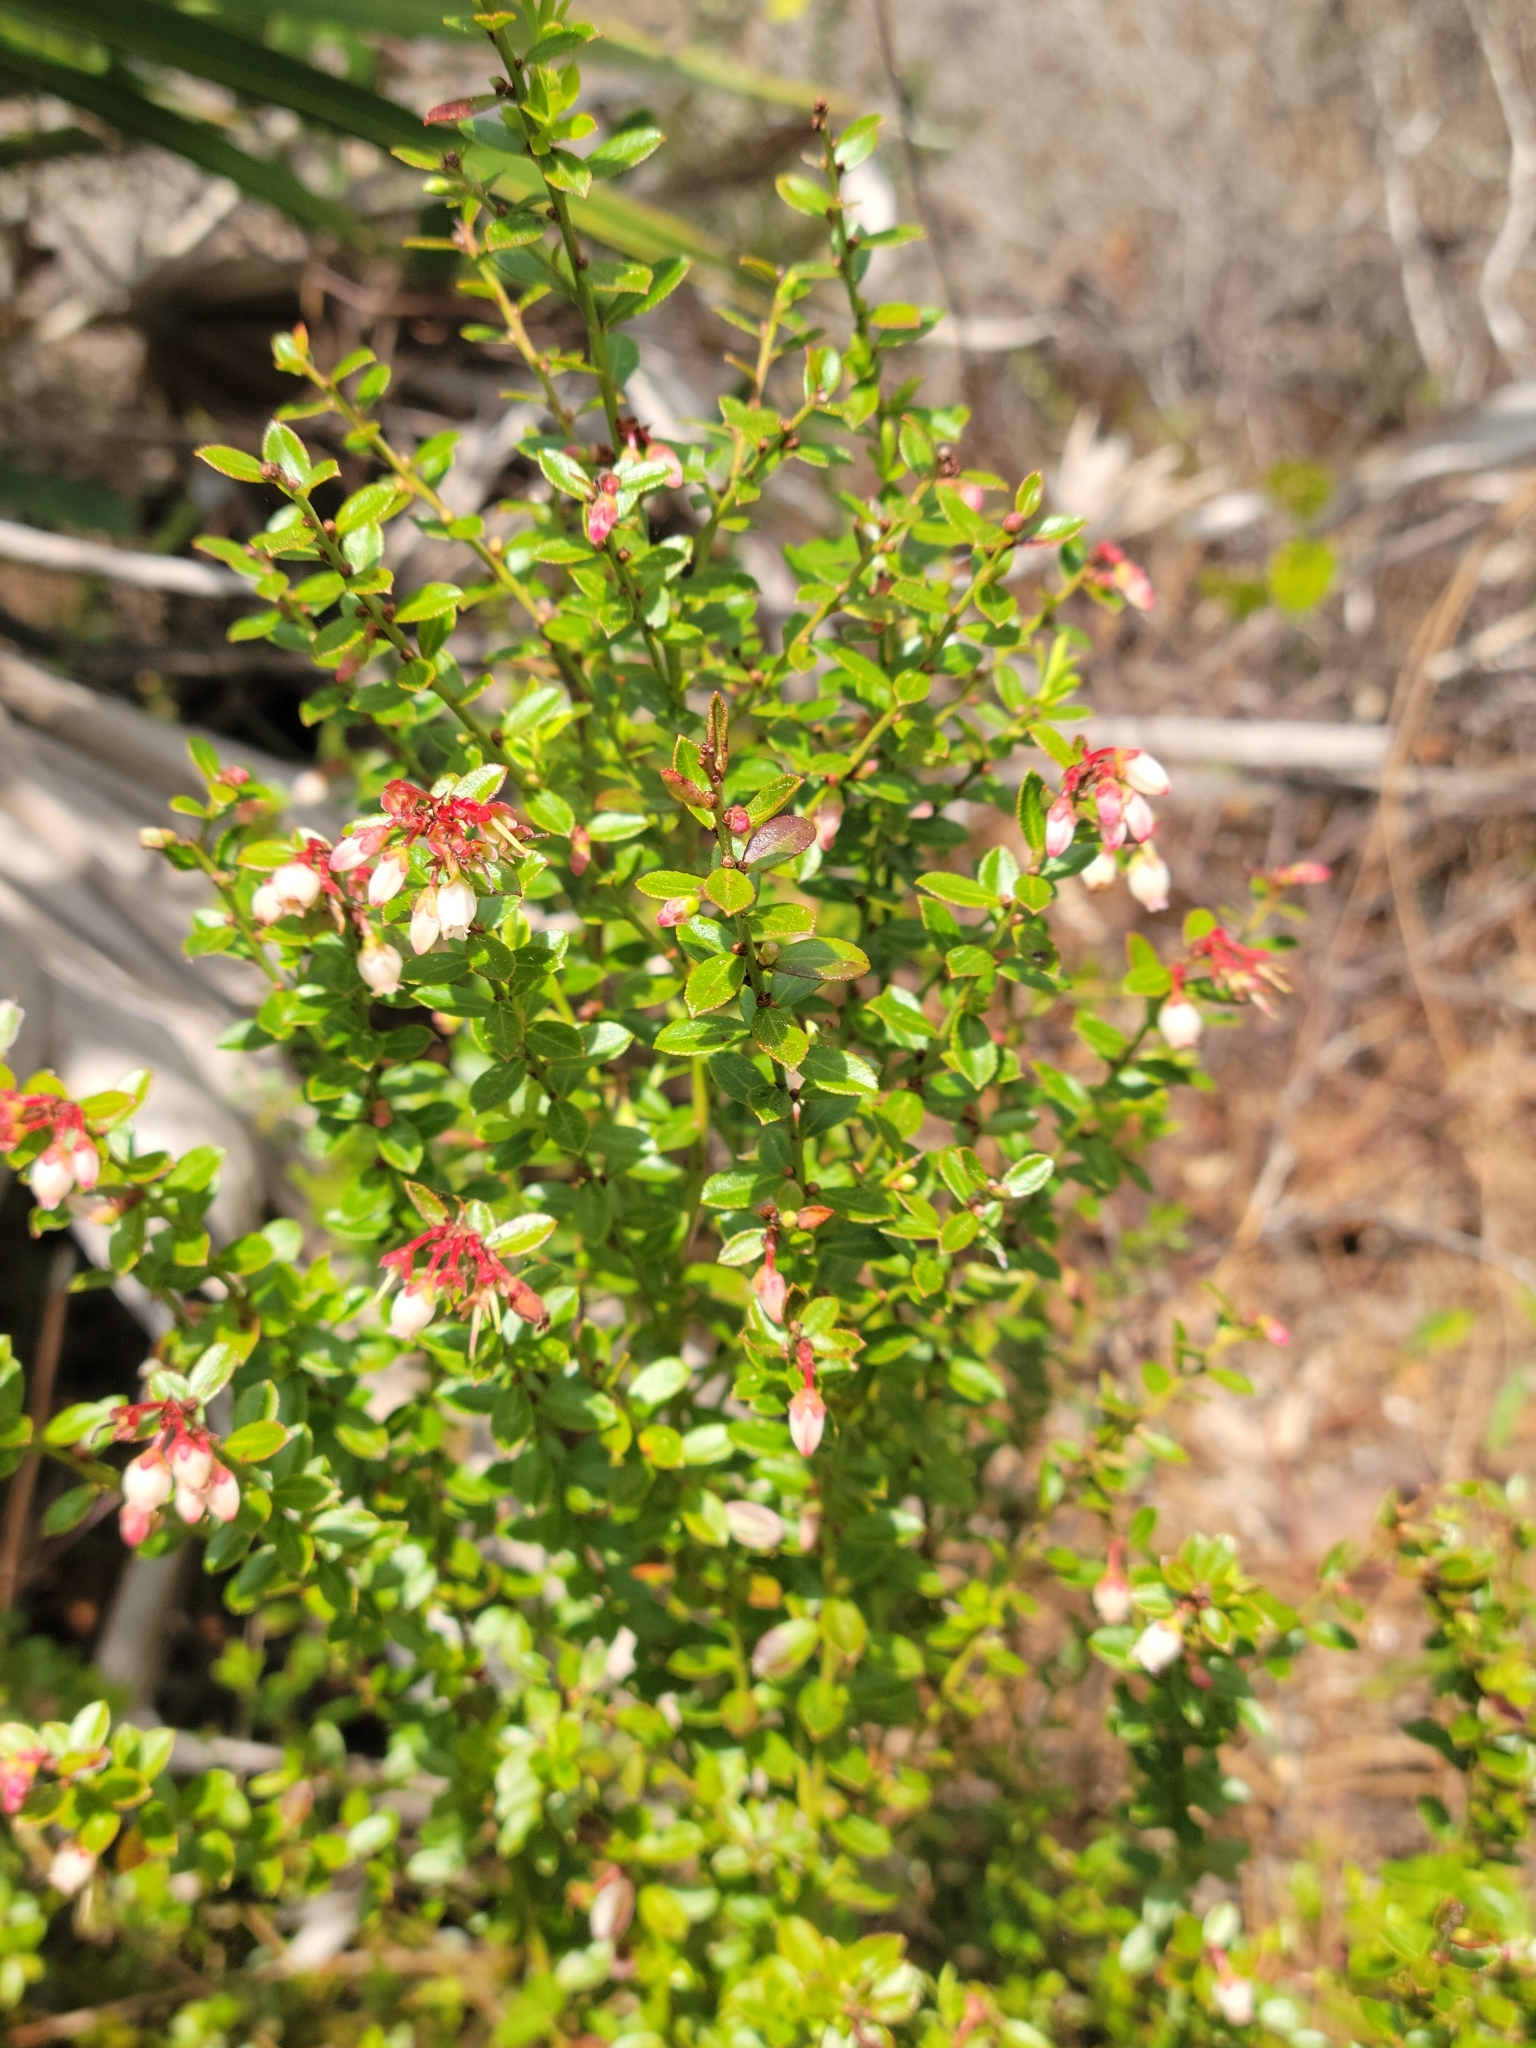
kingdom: Plantae
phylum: Tracheophyta
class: Magnoliopsida
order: Ericales
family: Ericaceae
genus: Vaccinium
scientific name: Vaccinium myrsinites
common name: Evergreen blueberry
